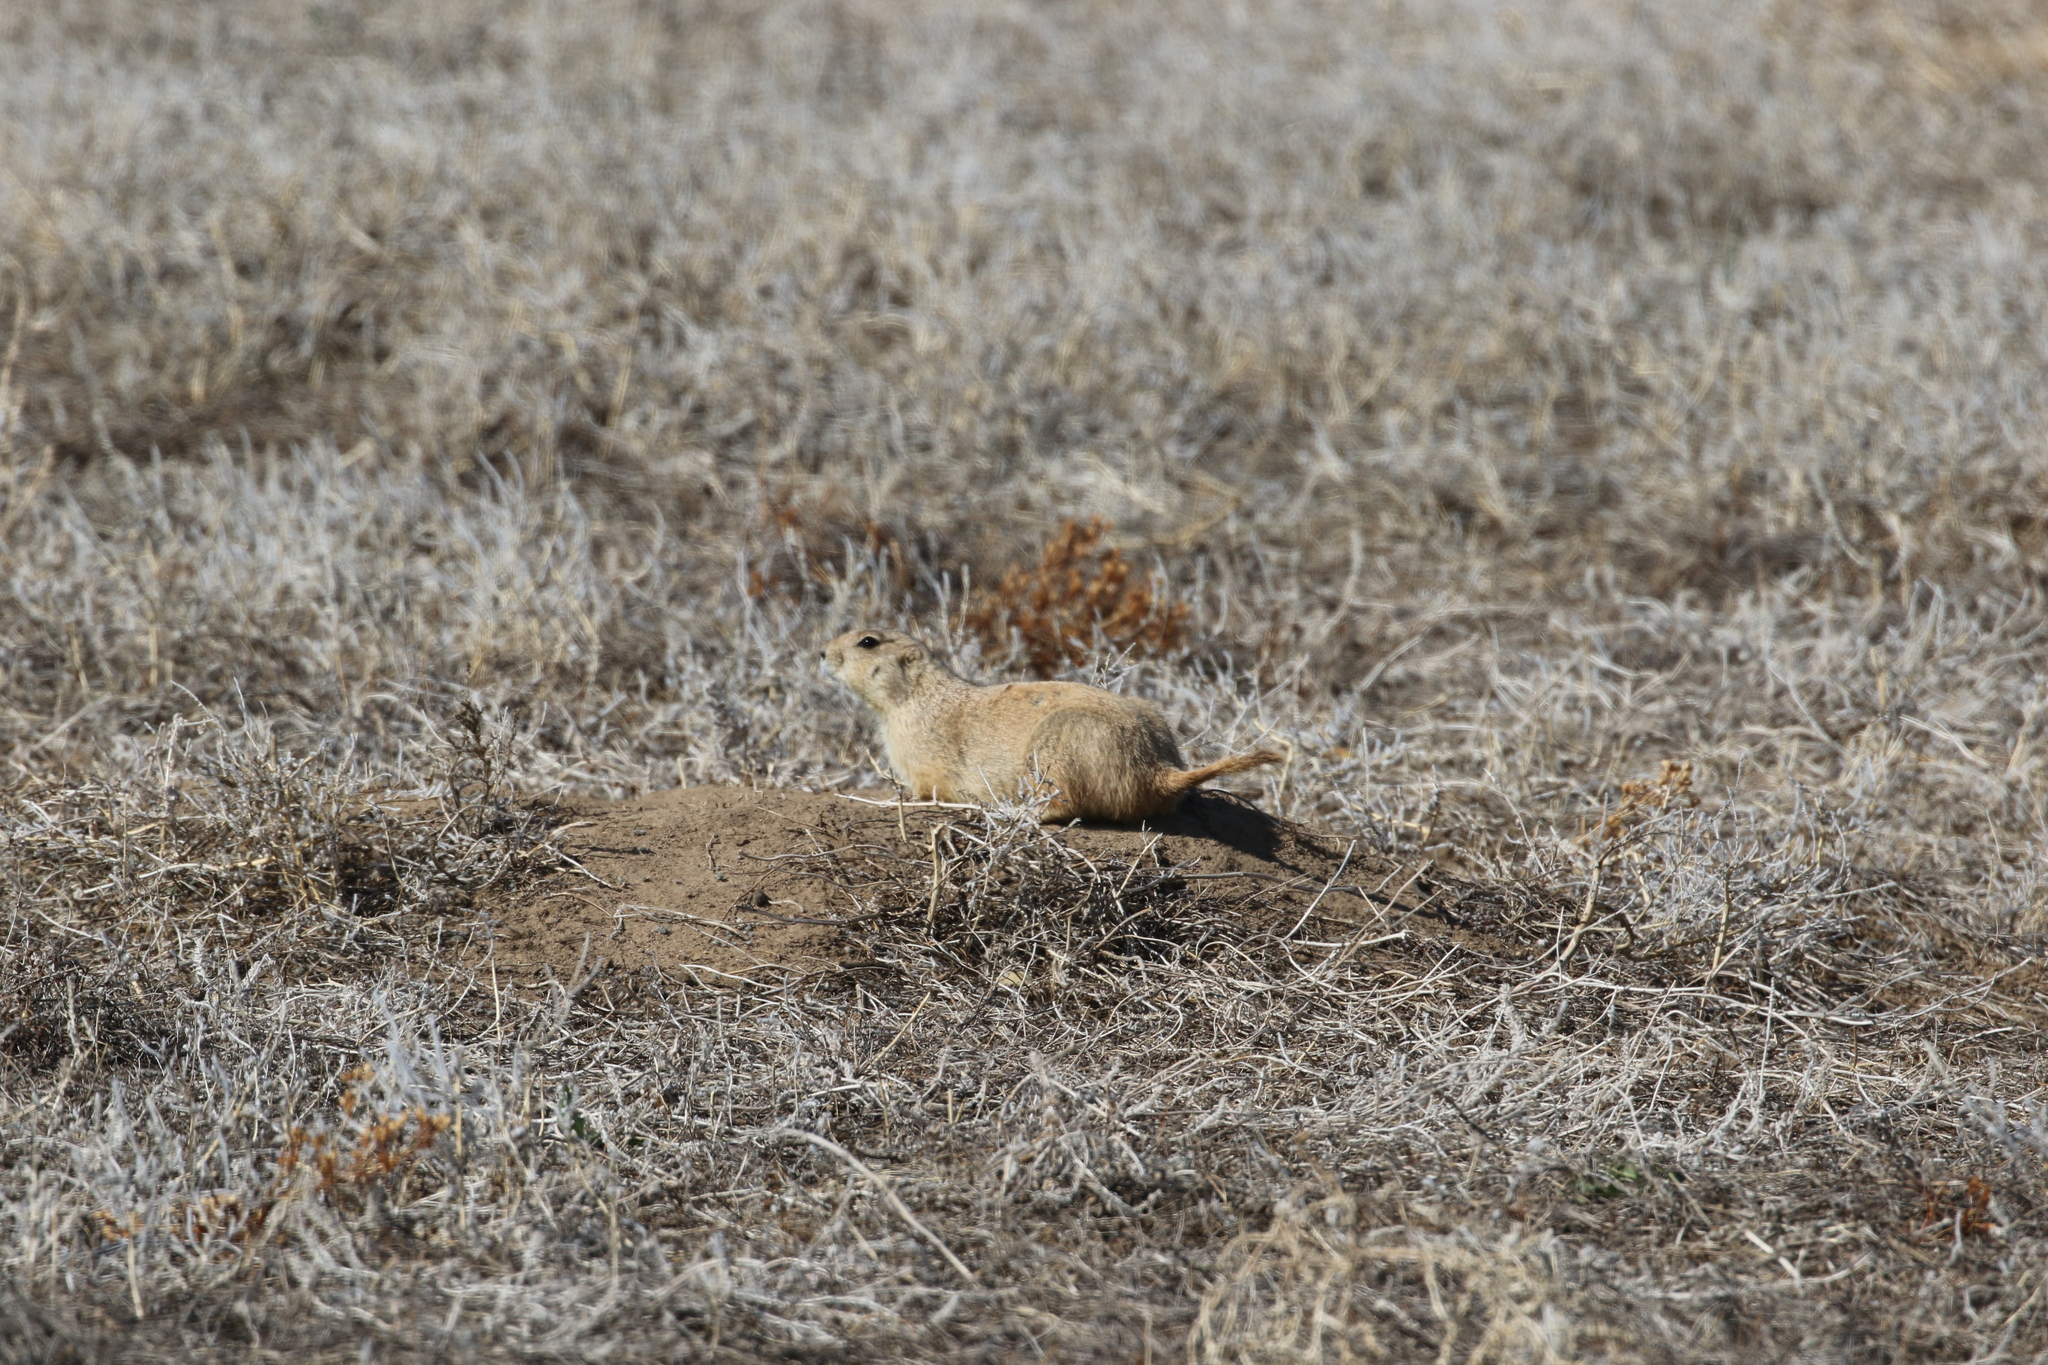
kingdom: Animalia
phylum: Chordata
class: Mammalia
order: Rodentia
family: Sciuridae
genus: Cynomys
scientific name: Cynomys ludovicianus
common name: Black-tailed prairie dog
